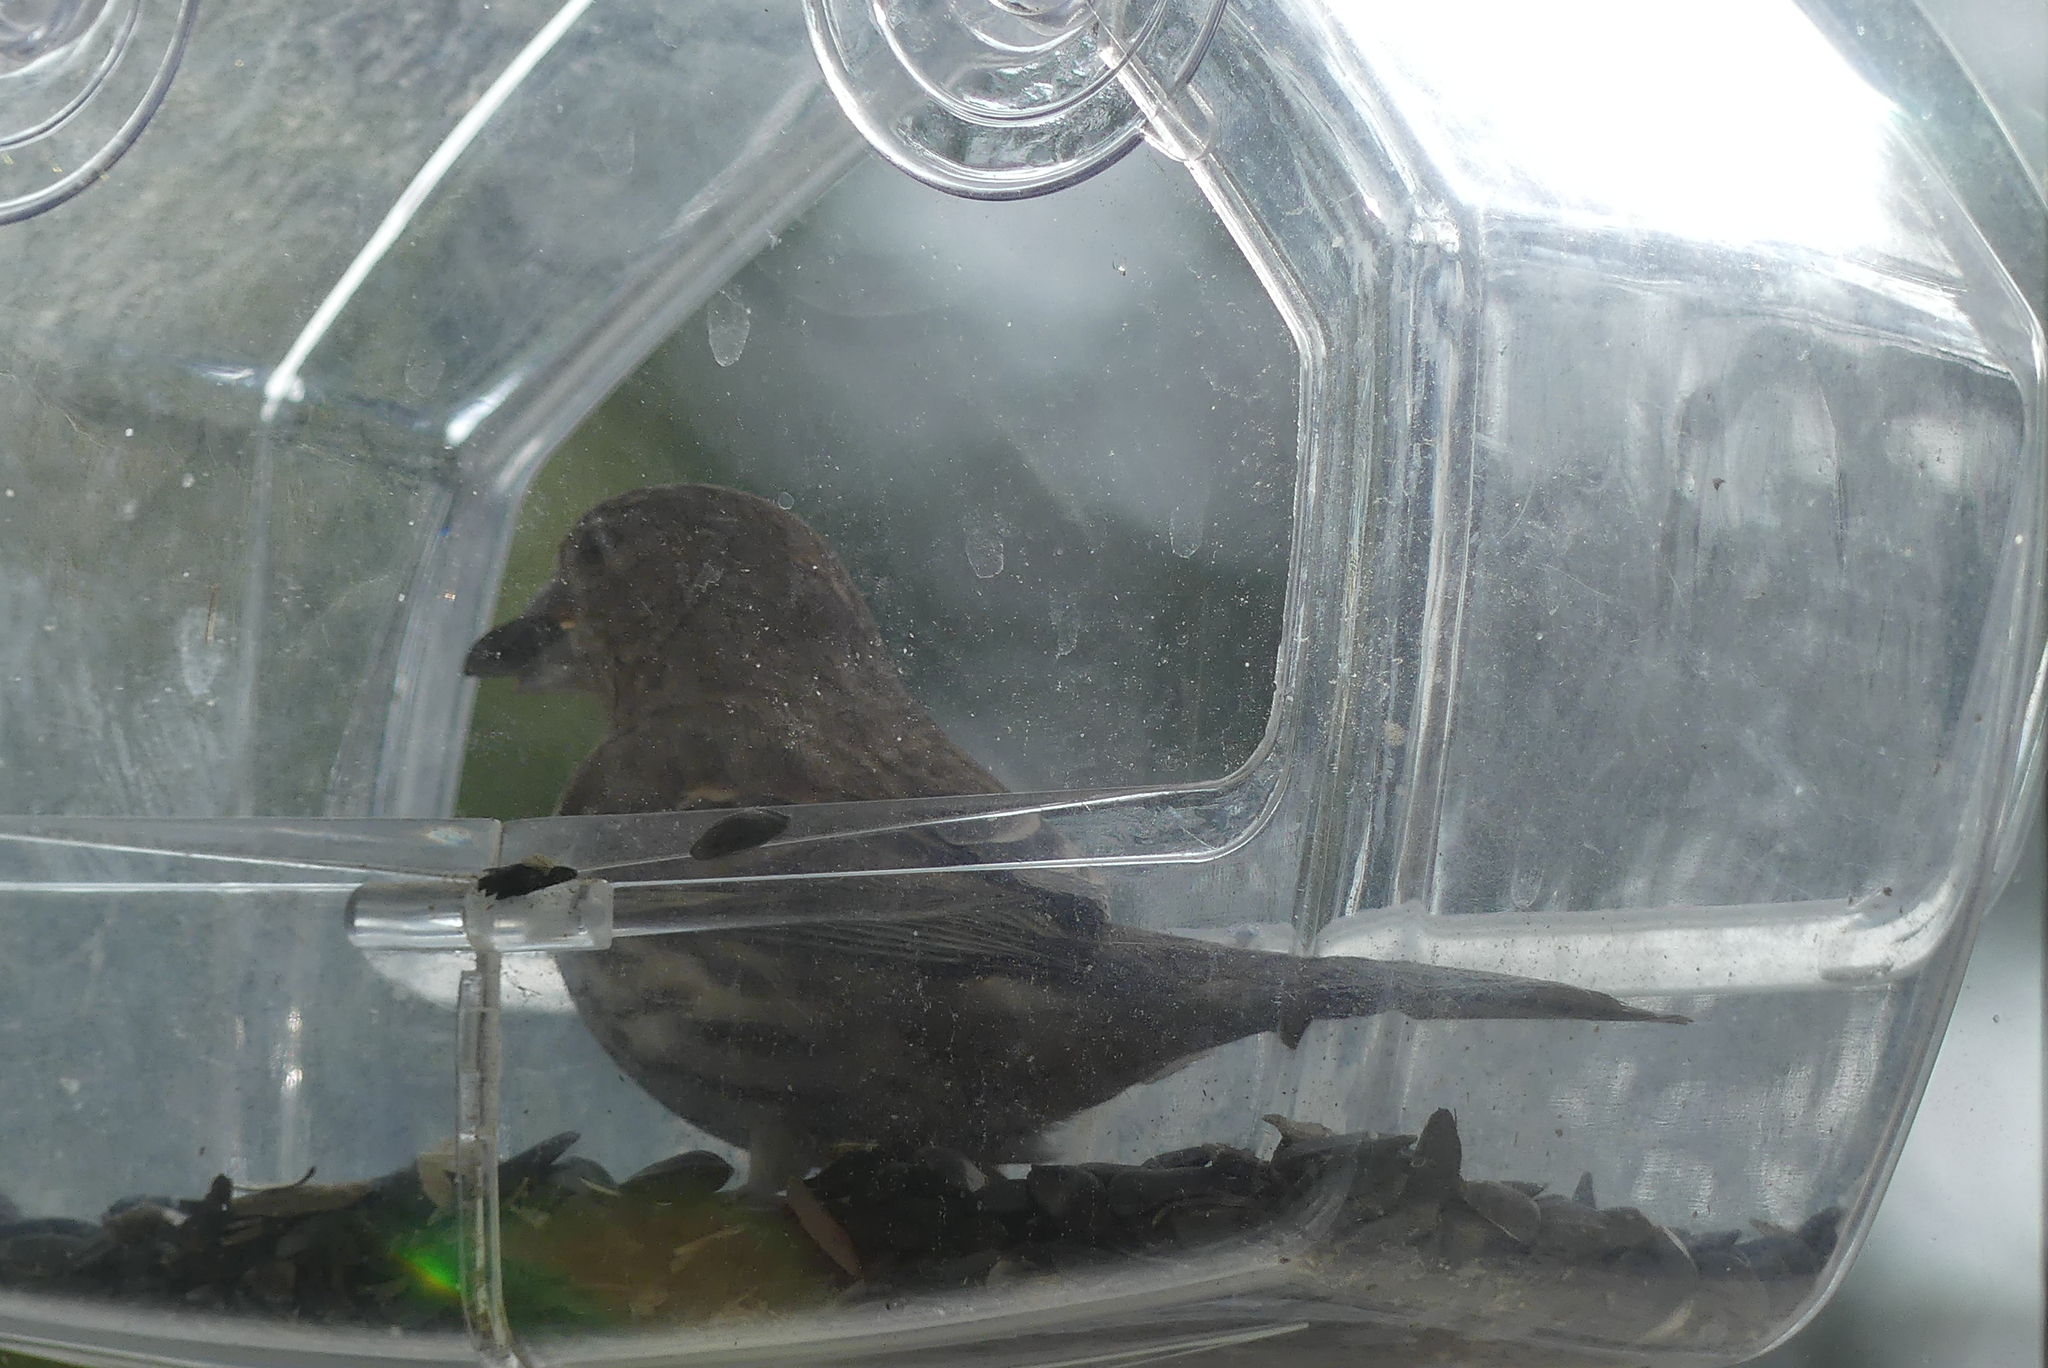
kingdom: Animalia
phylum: Chordata
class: Aves
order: Passeriformes
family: Fringillidae
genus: Haemorhous
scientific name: Haemorhous mexicanus
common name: House finch
